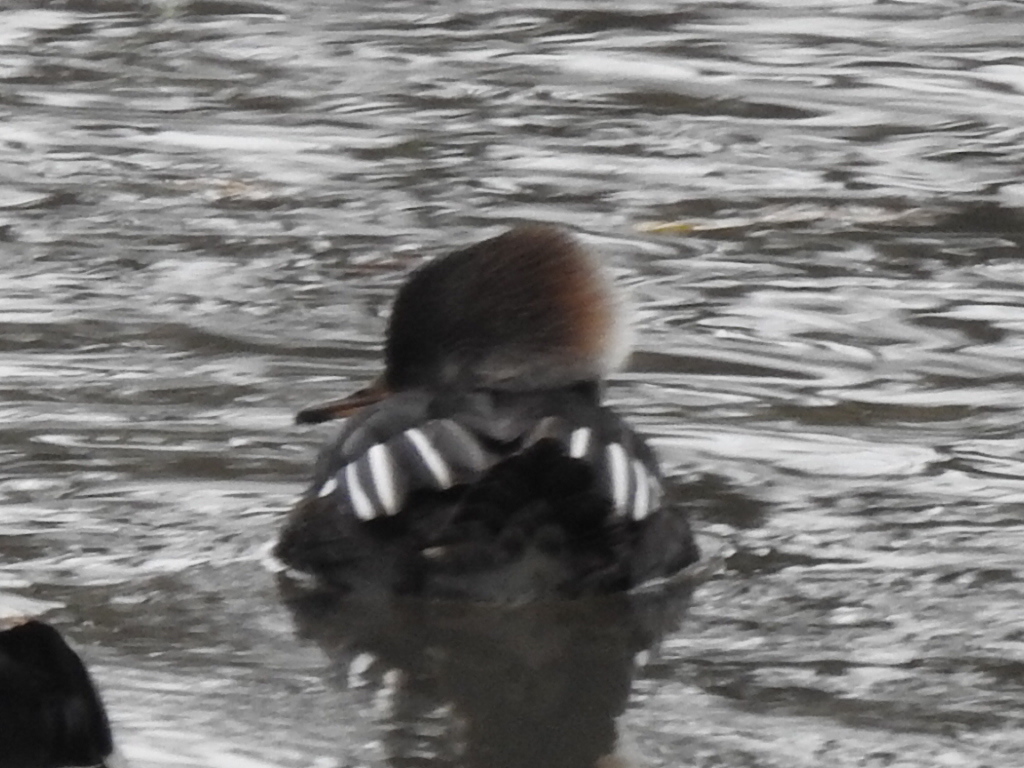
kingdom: Animalia
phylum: Chordata
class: Aves
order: Anseriformes
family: Anatidae
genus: Lophodytes
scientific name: Lophodytes cucullatus
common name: Hooded merganser
